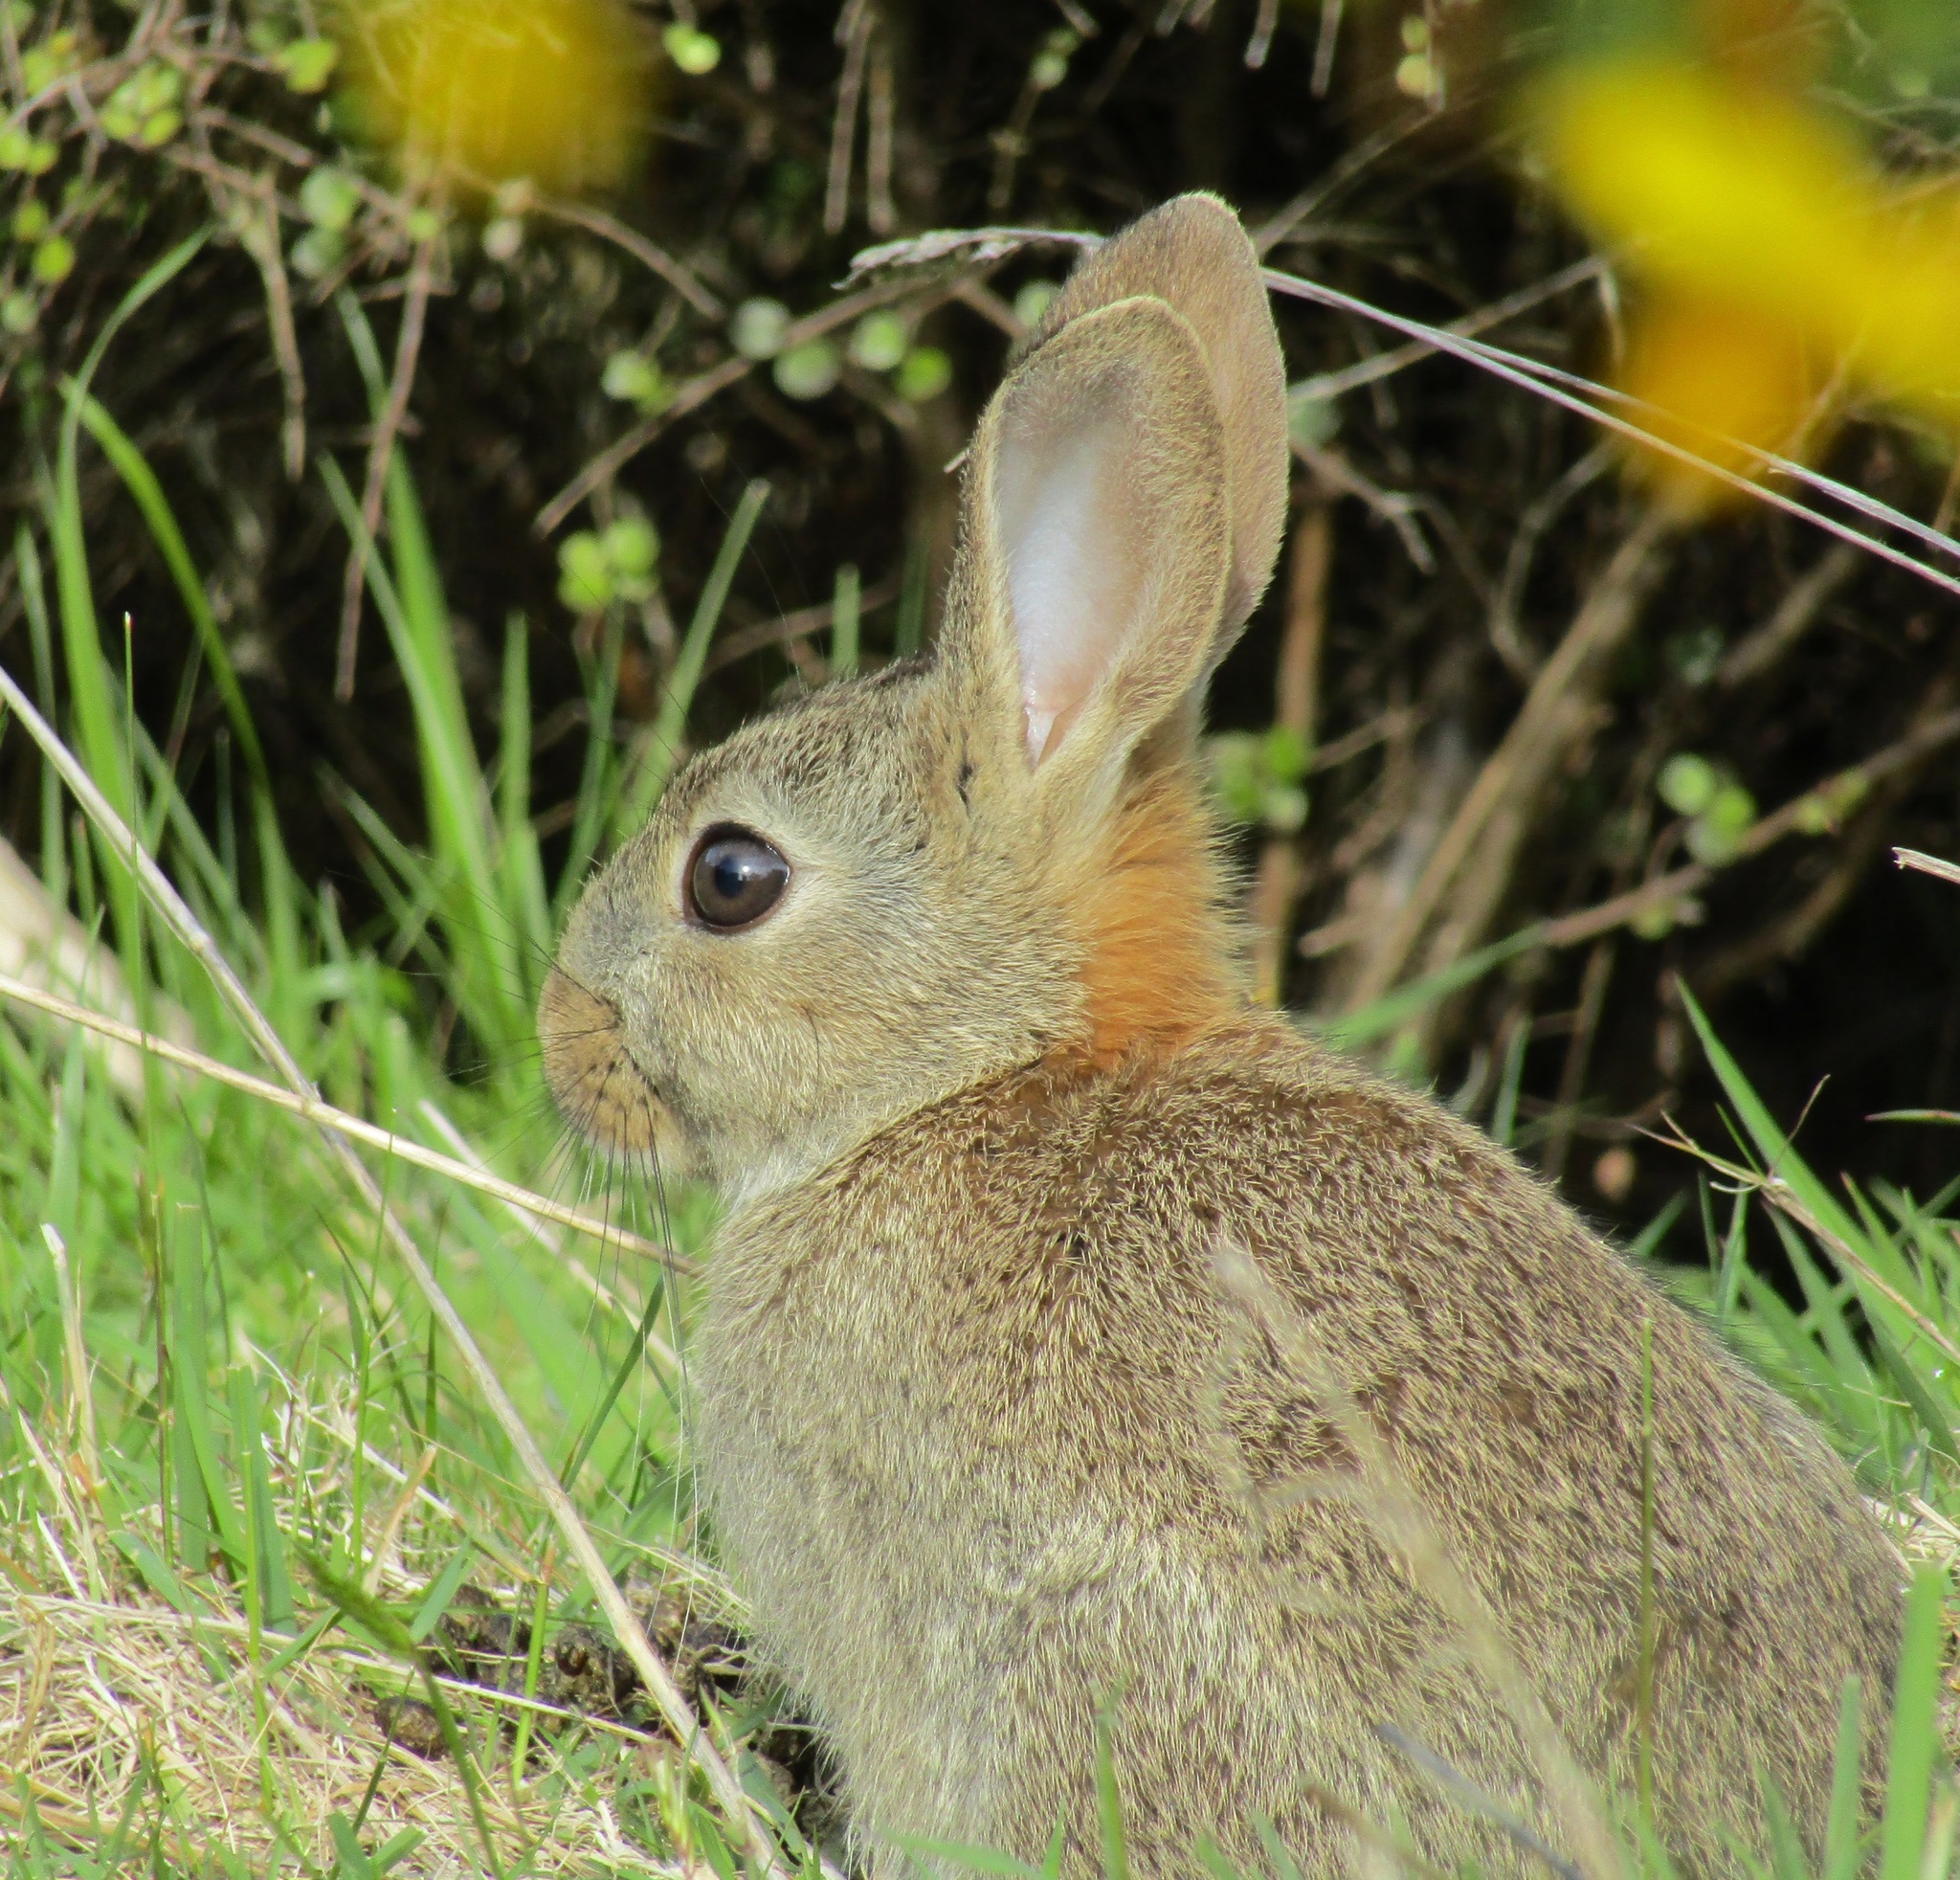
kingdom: Animalia
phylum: Chordata
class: Mammalia
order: Lagomorpha
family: Leporidae
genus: Oryctolagus
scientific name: Oryctolagus cuniculus
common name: European rabbit
